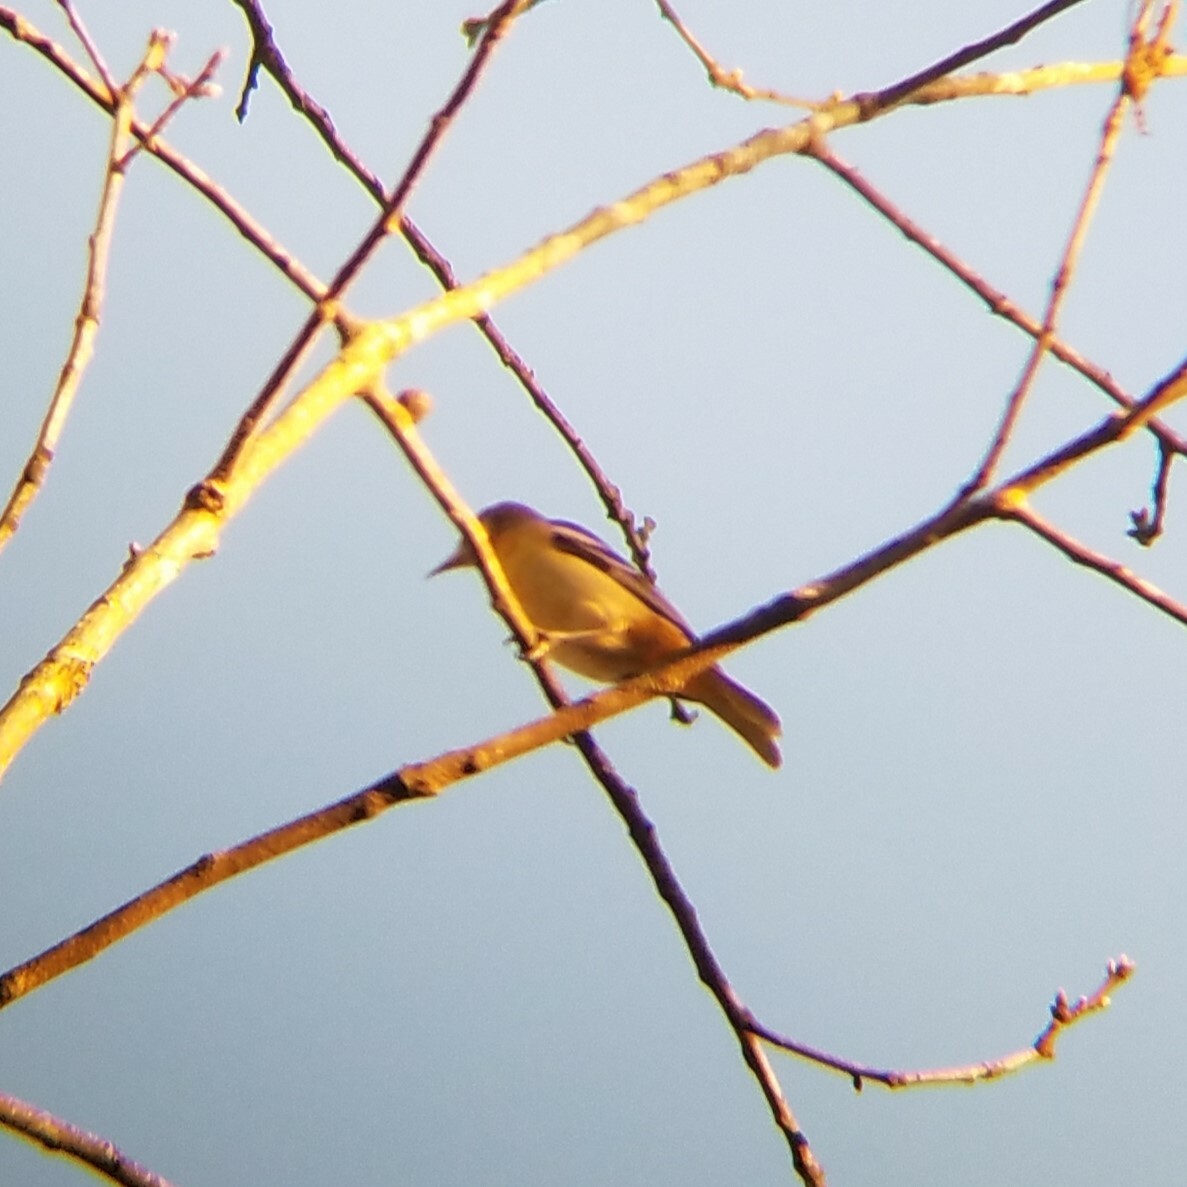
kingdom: Animalia
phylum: Chordata
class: Aves
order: Passeriformes
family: Icteridae
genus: Icterus
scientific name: Icterus galbula
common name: Baltimore oriole
